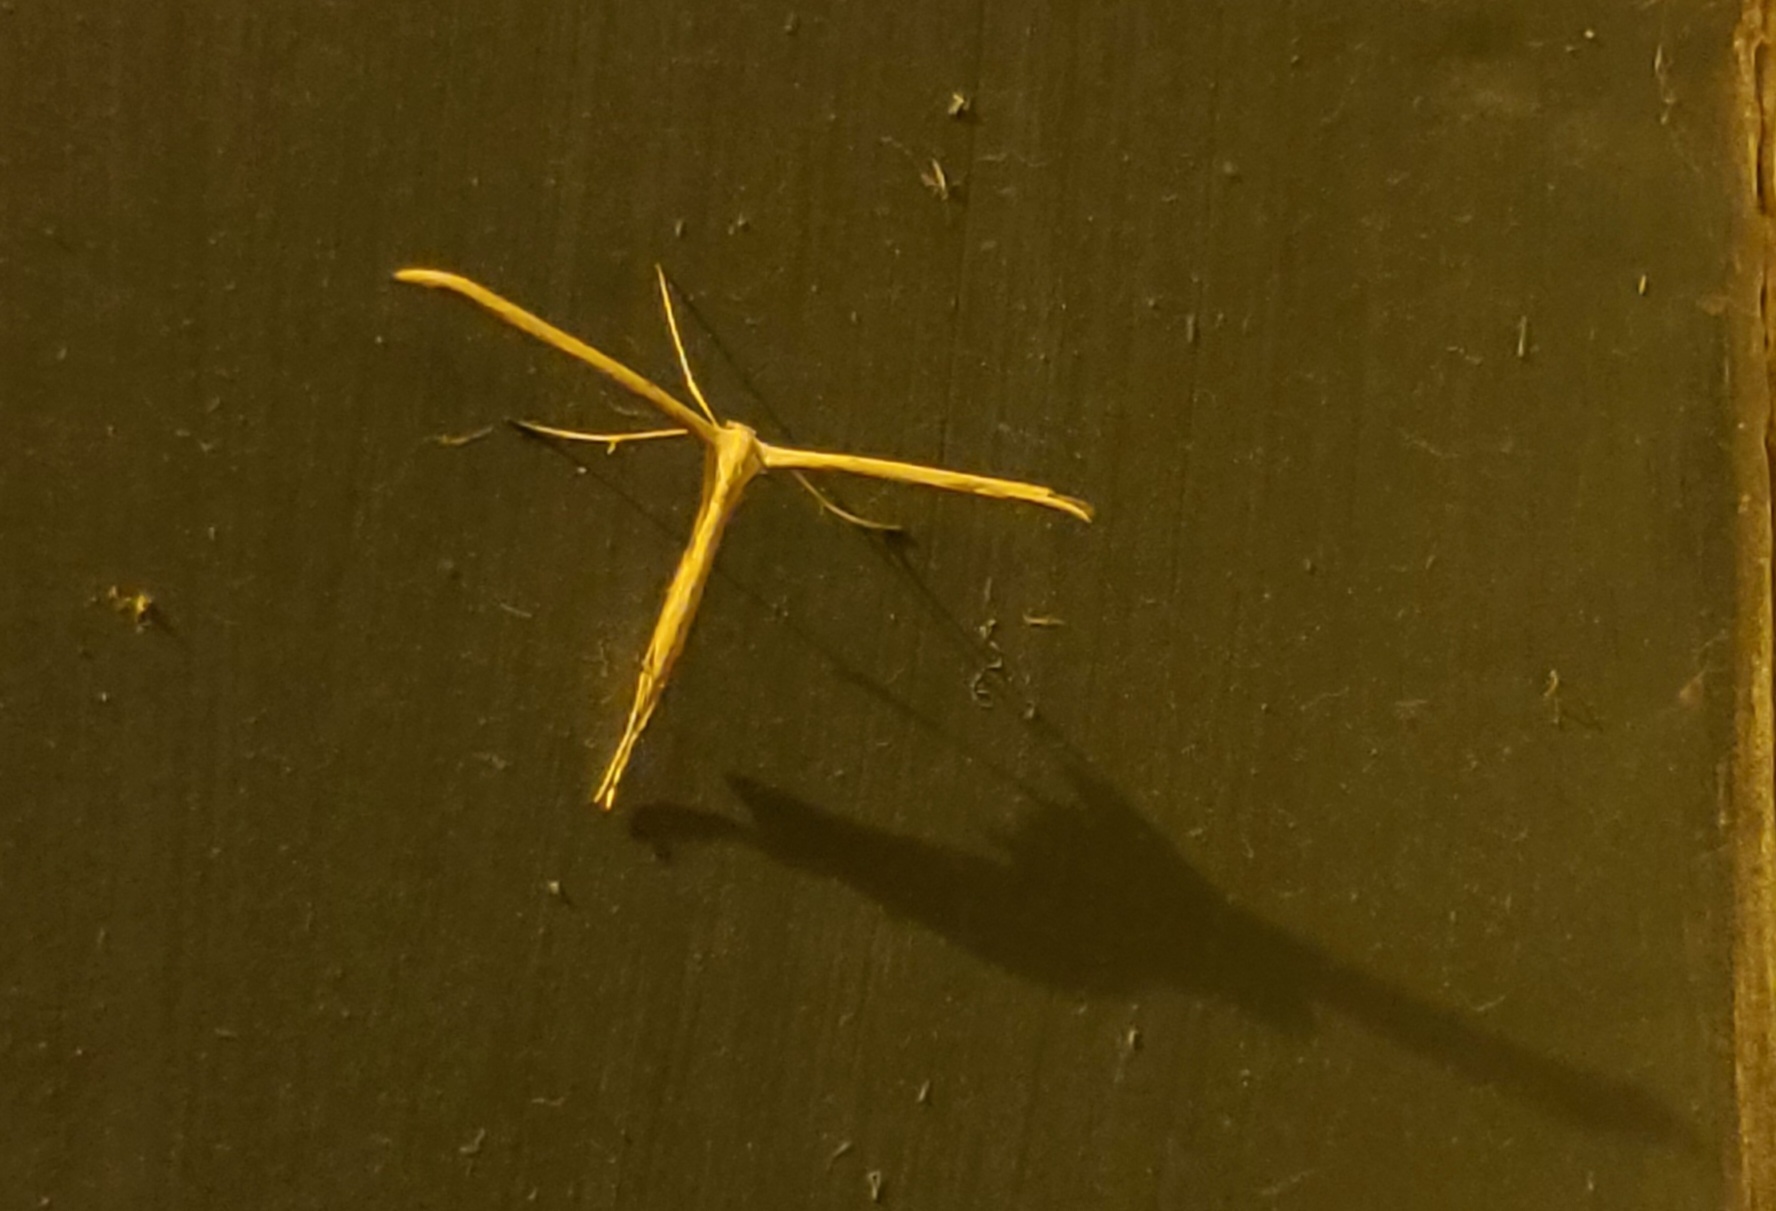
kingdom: Animalia
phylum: Arthropoda
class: Insecta
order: Lepidoptera
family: Pterophoridae
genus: Emmelina
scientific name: Emmelina monodactyla
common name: Common plume
